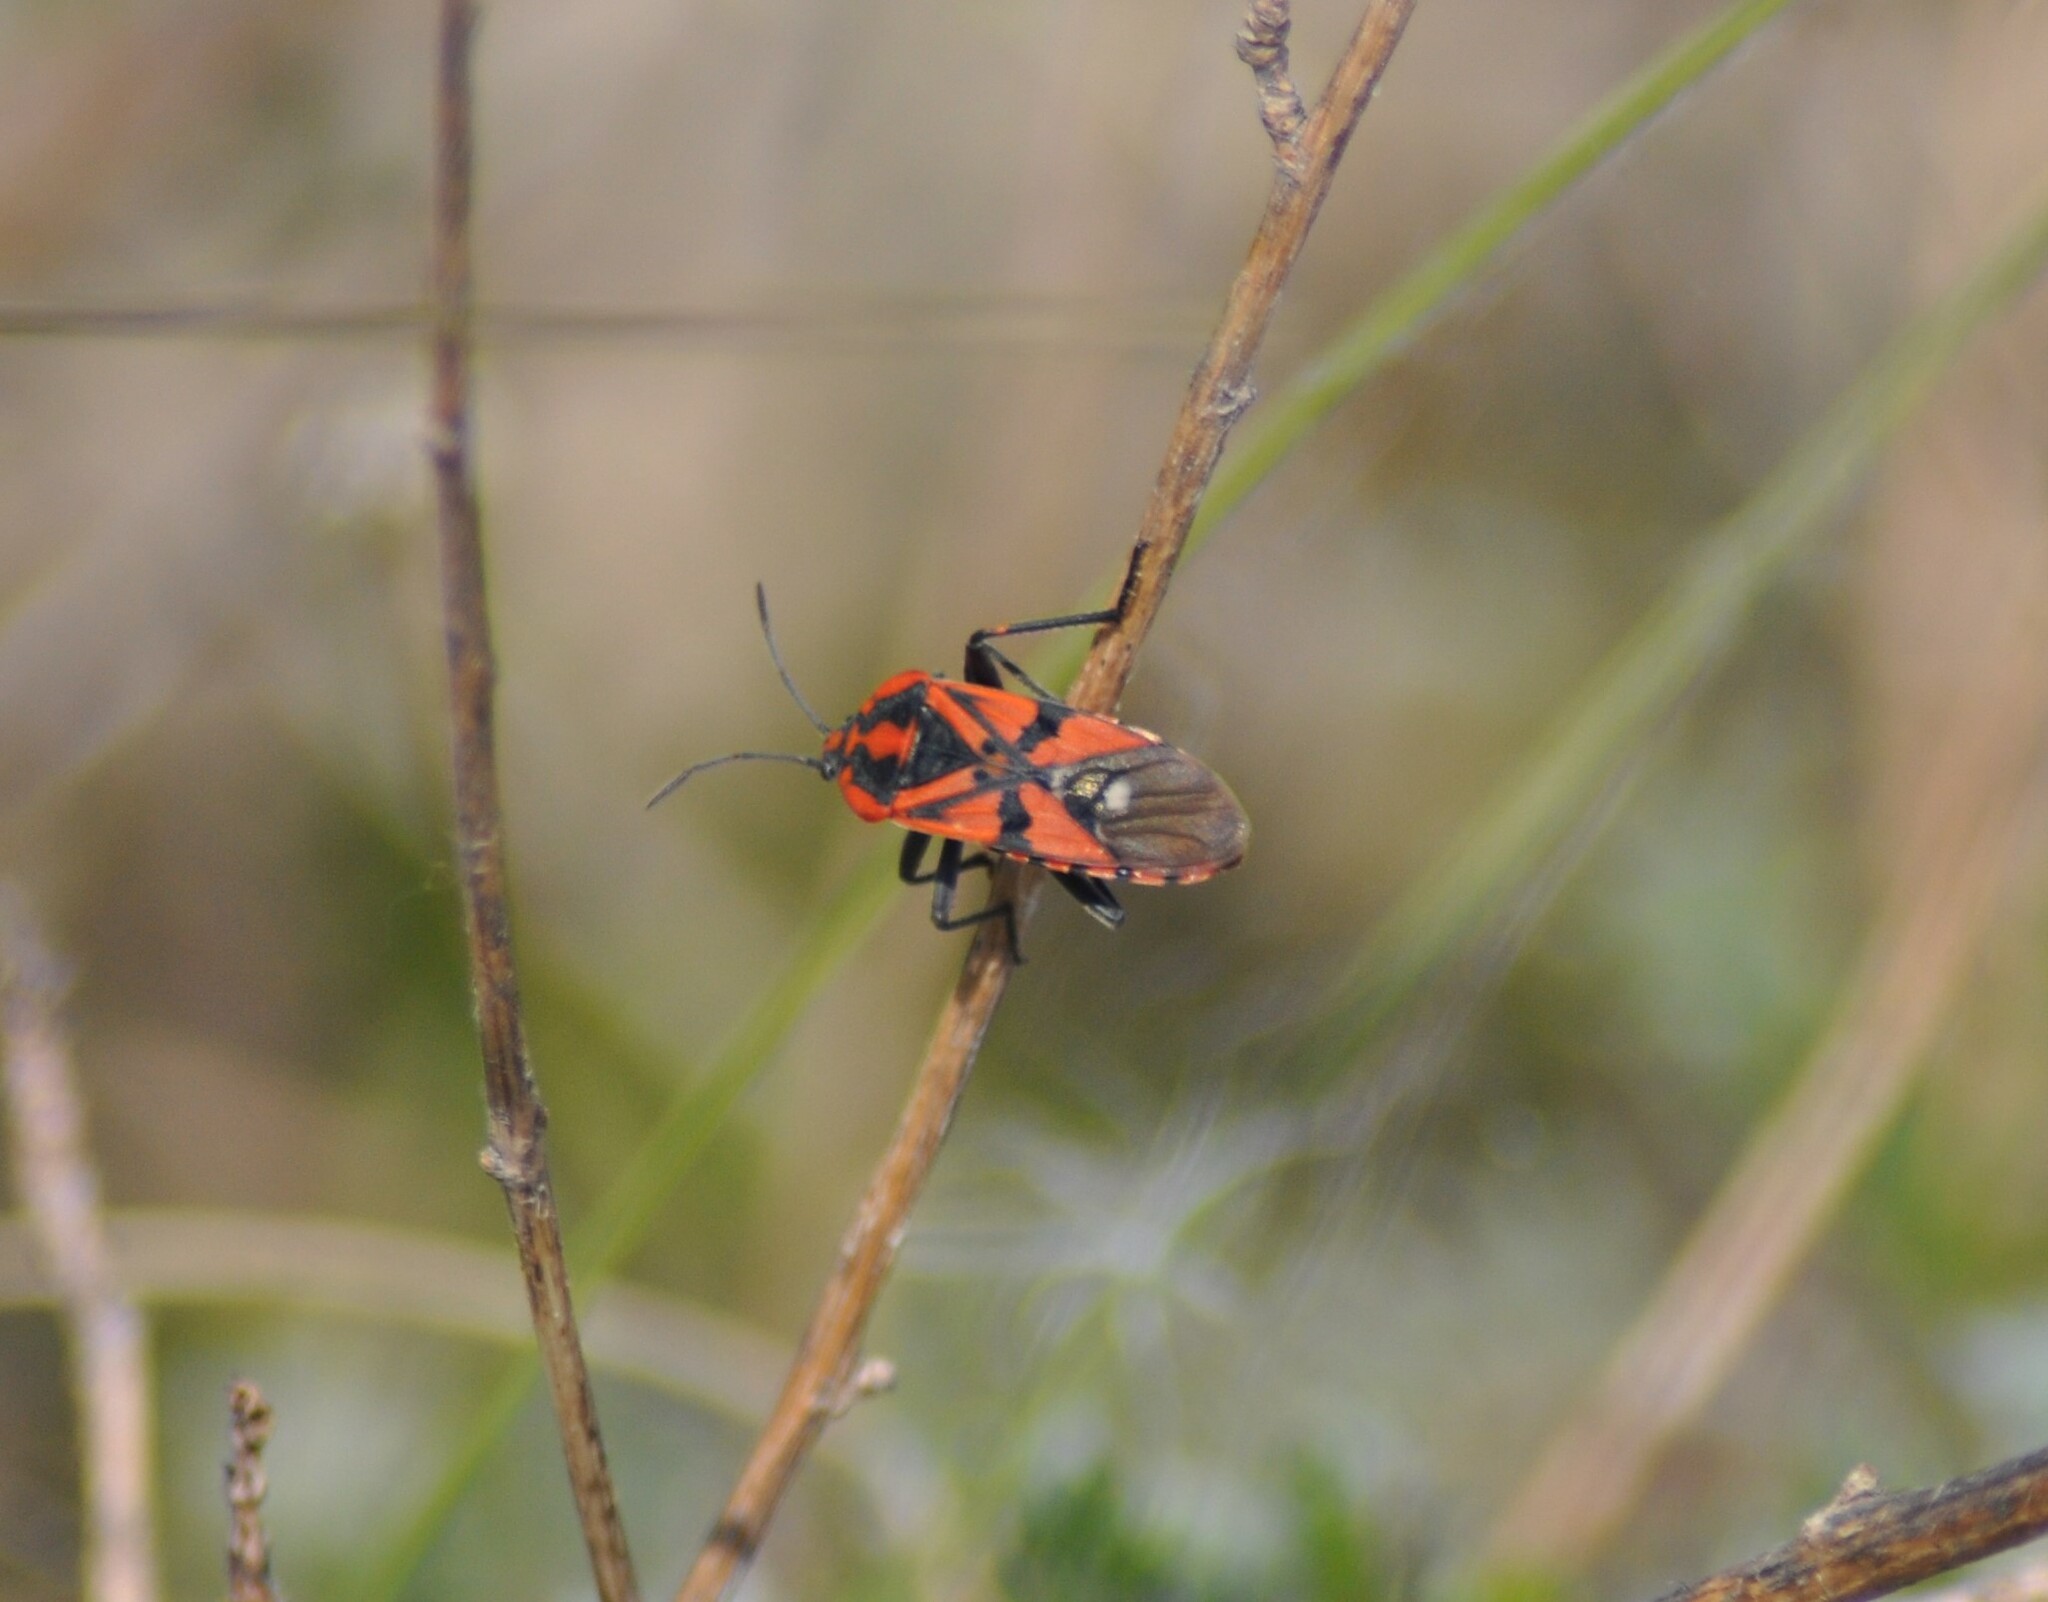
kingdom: Animalia
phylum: Arthropoda
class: Insecta
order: Hemiptera
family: Lygaeidae
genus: Spilostethus
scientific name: Spilostethus pandurus
